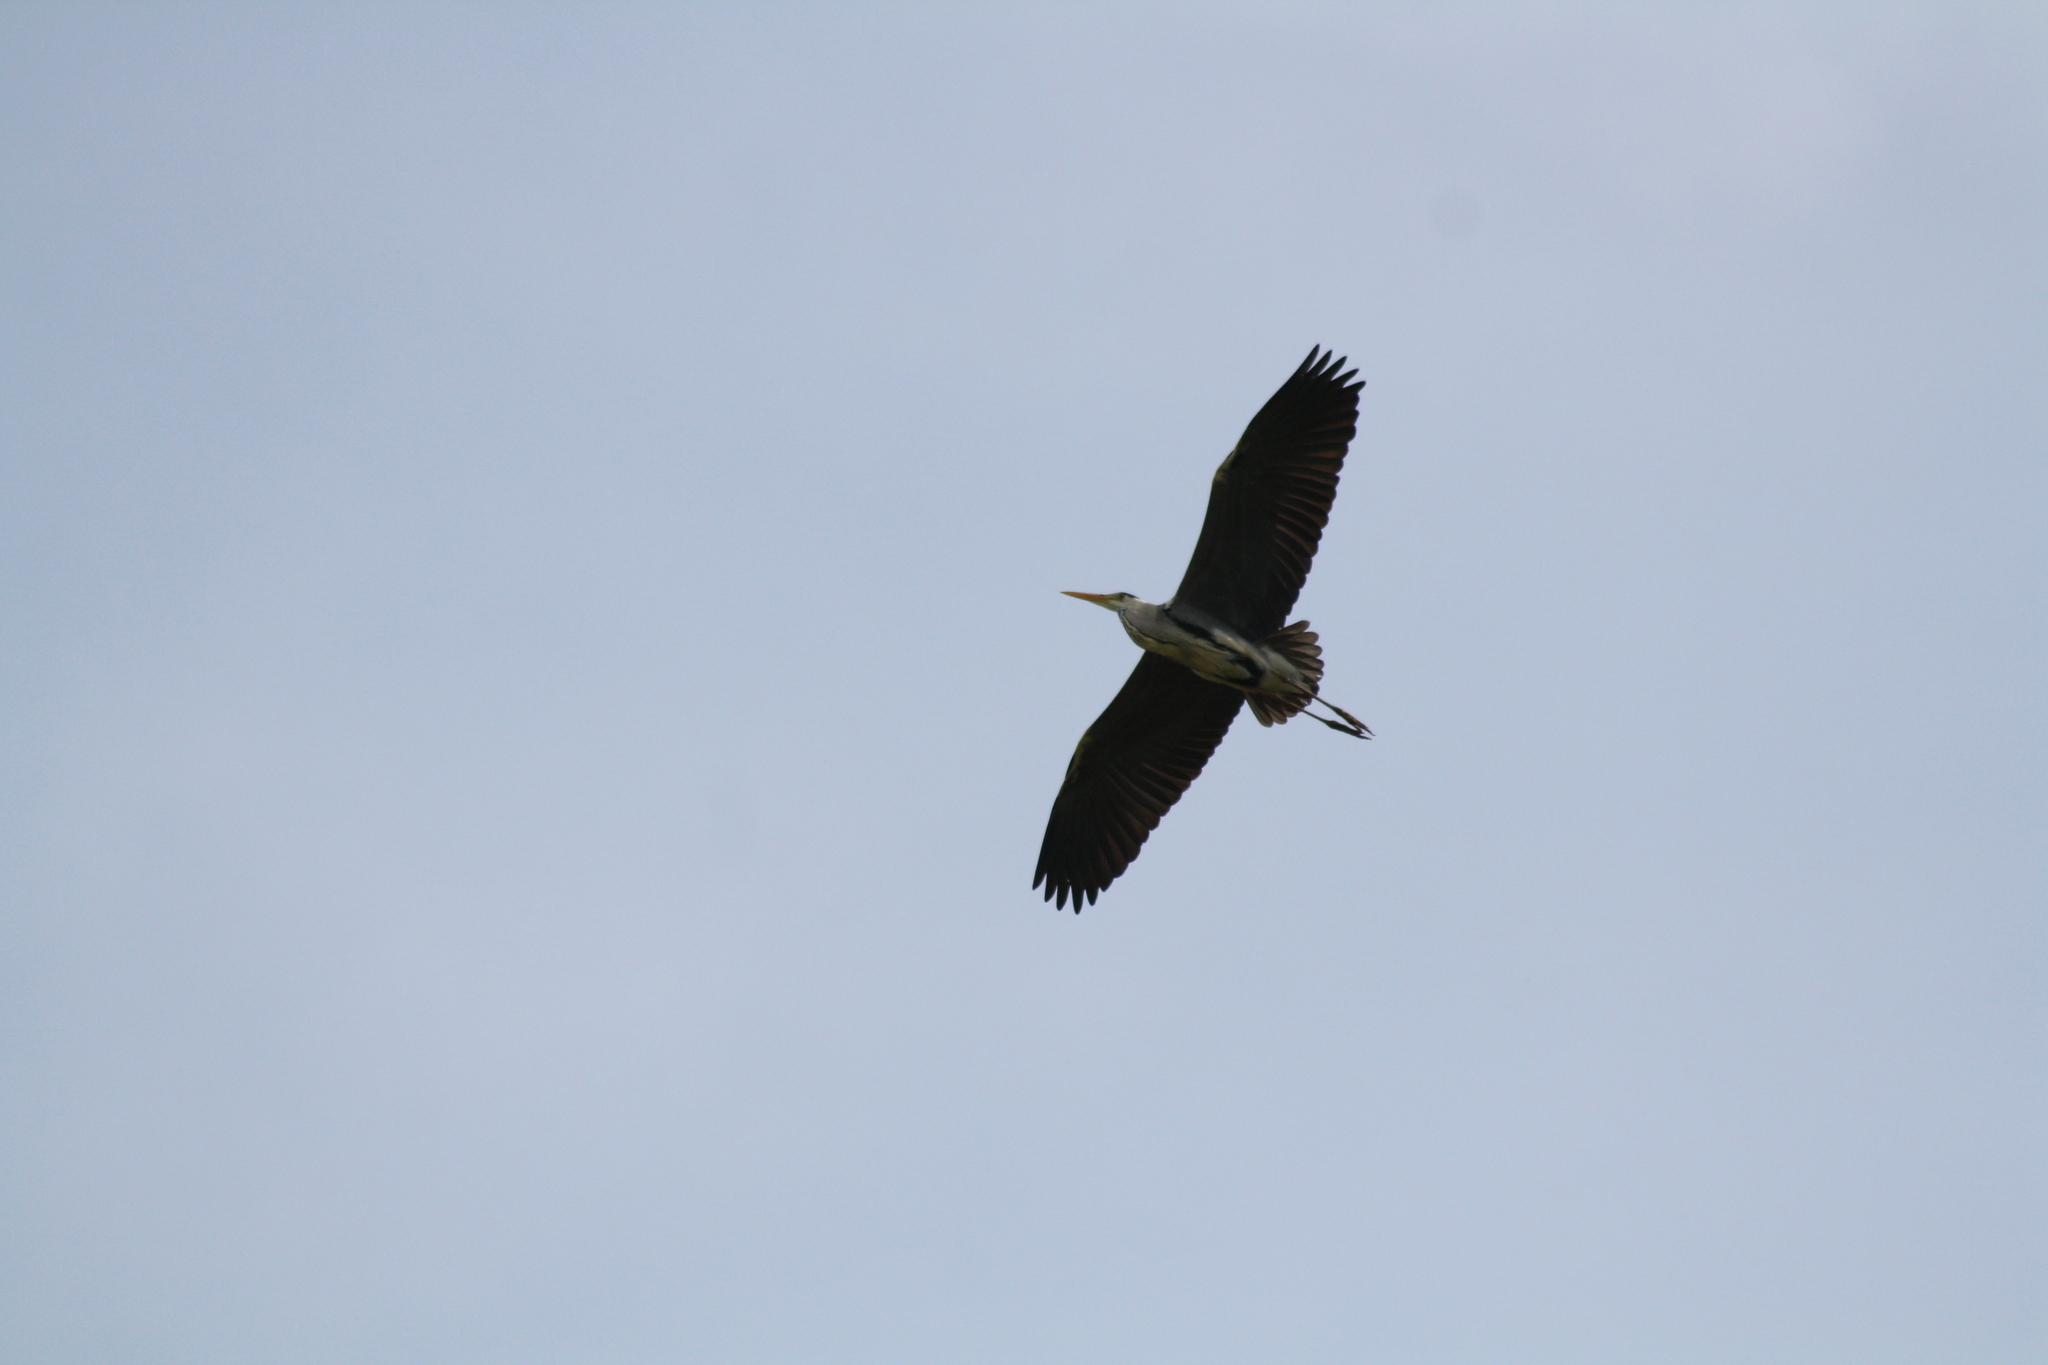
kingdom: Animalia
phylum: Chordata
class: Aves
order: Pelecaniformes
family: Ardeidae
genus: Ardea
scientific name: Ardea cinerea
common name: Grey heron
